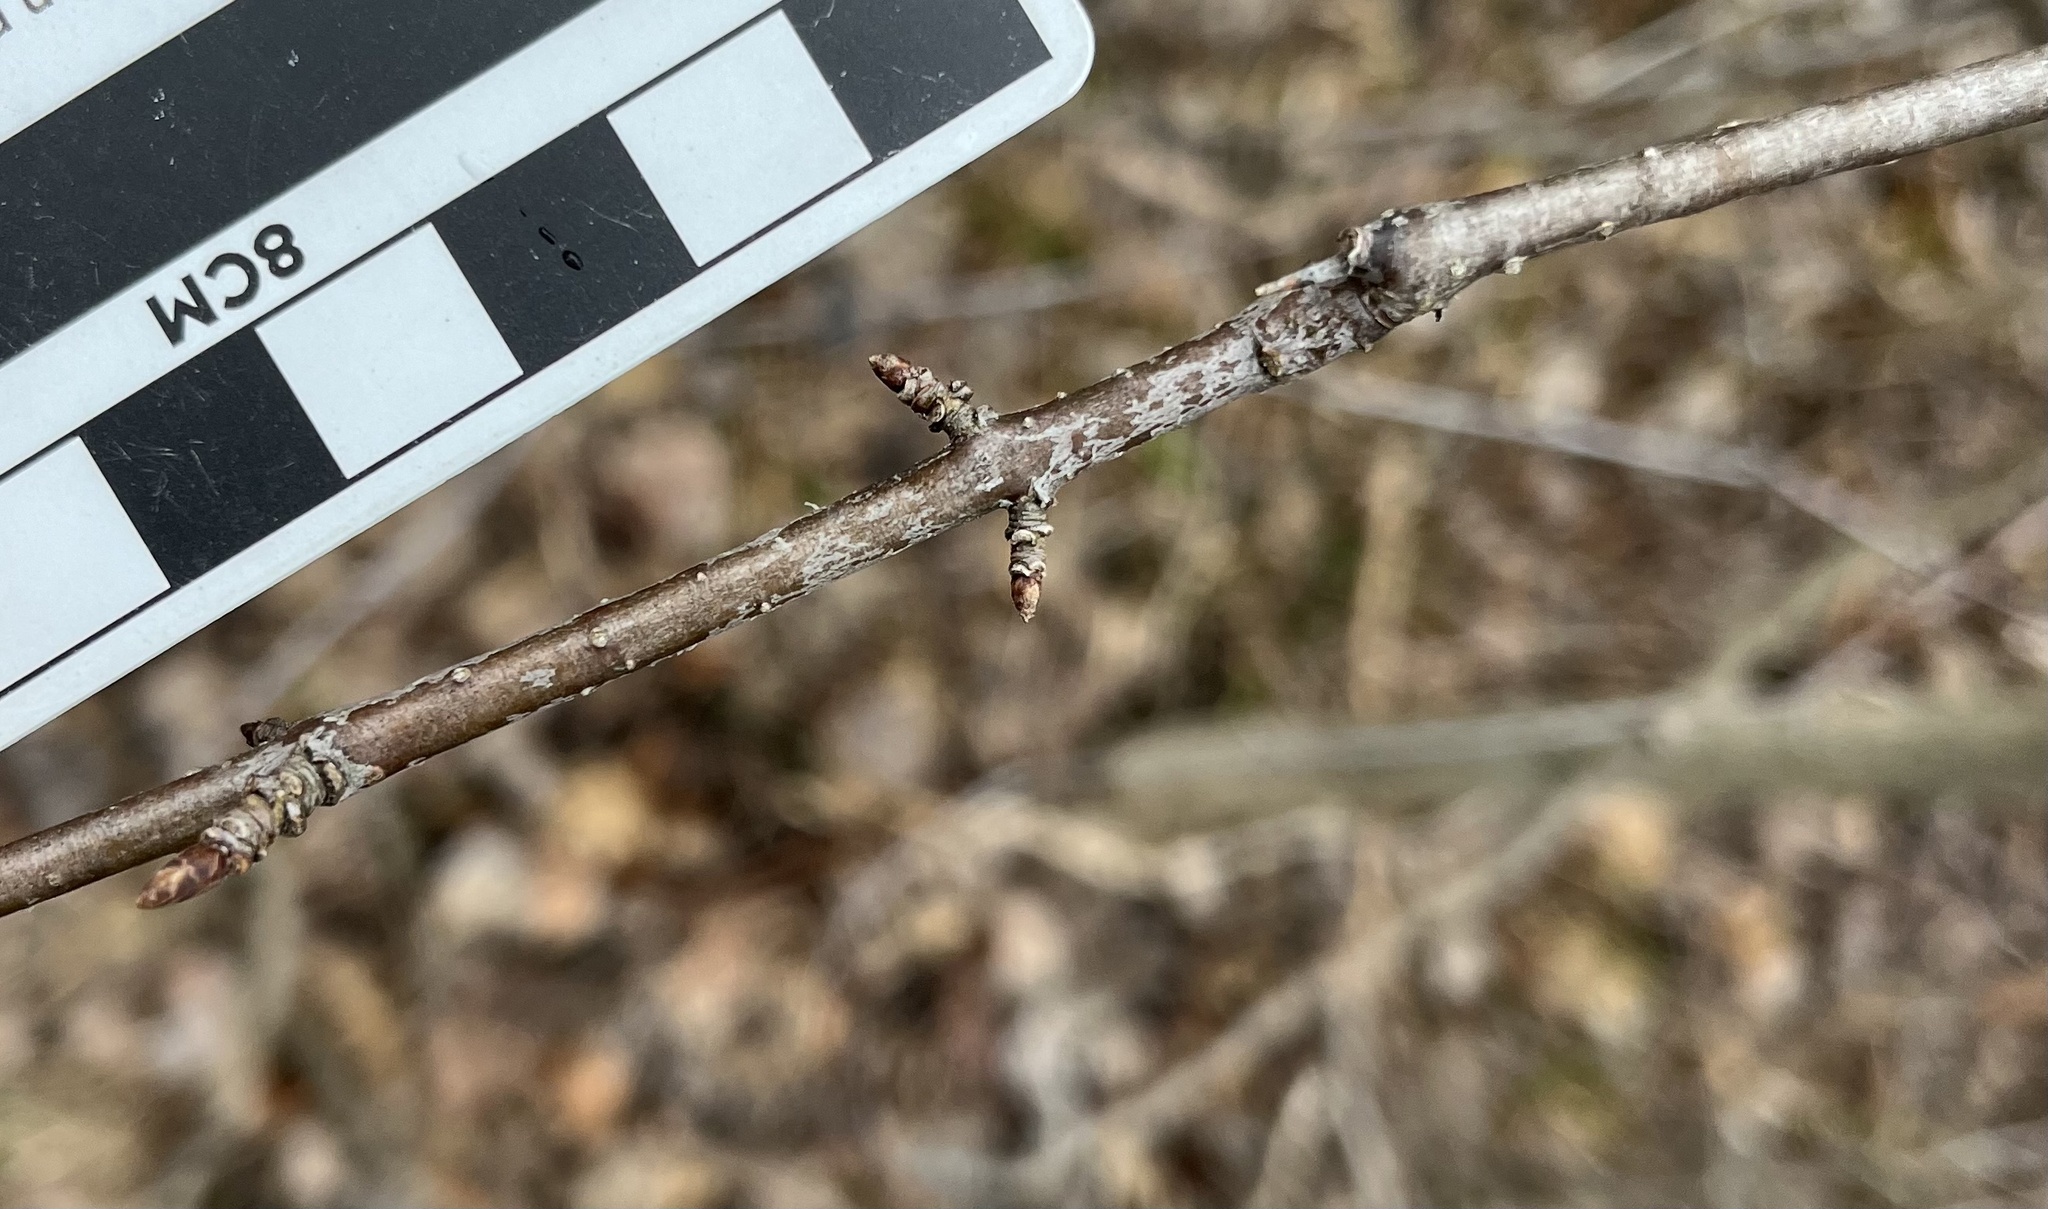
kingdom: Plantae
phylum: Tracheophyta
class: Magnoliopsida
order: Rosales
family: Rhamnaceae
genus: Rhamnus
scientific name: Rhamnus cathartica
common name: Common buckthorn
